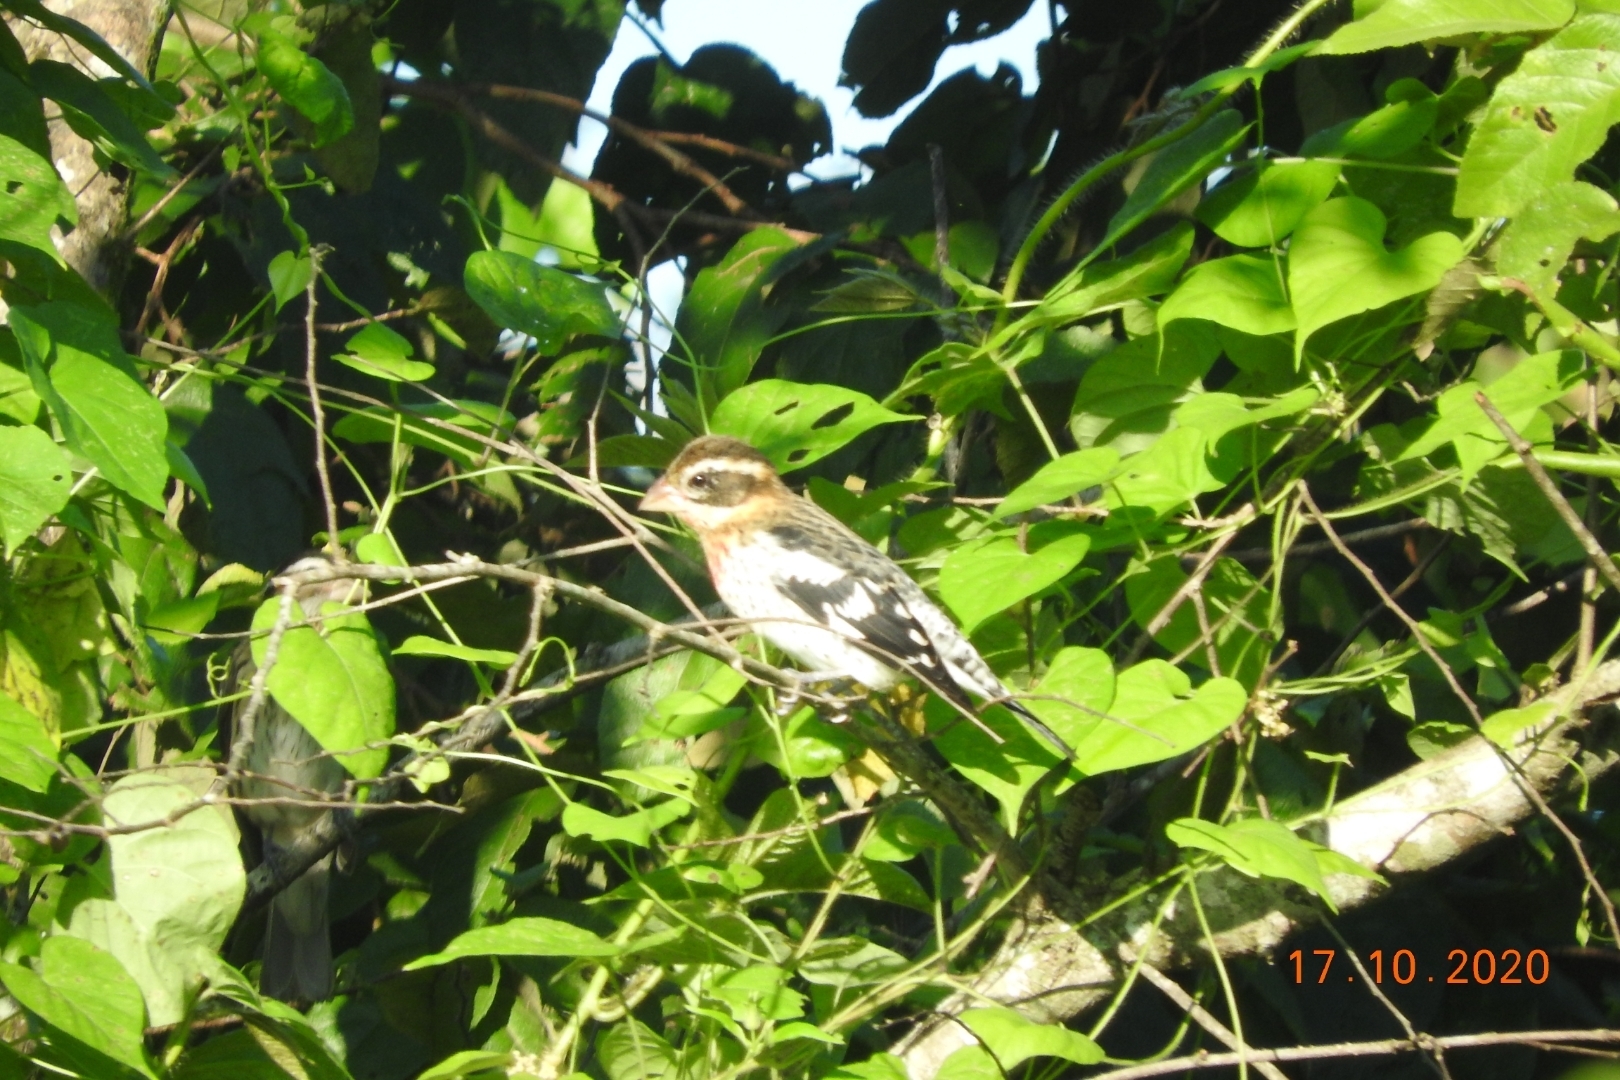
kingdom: Animalia
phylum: Chordata
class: Aves
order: Passeriformes
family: Cardinalidae
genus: Pheucticus
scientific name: Pheucticus ludovicianus
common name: Rose-breasted grosbeak
